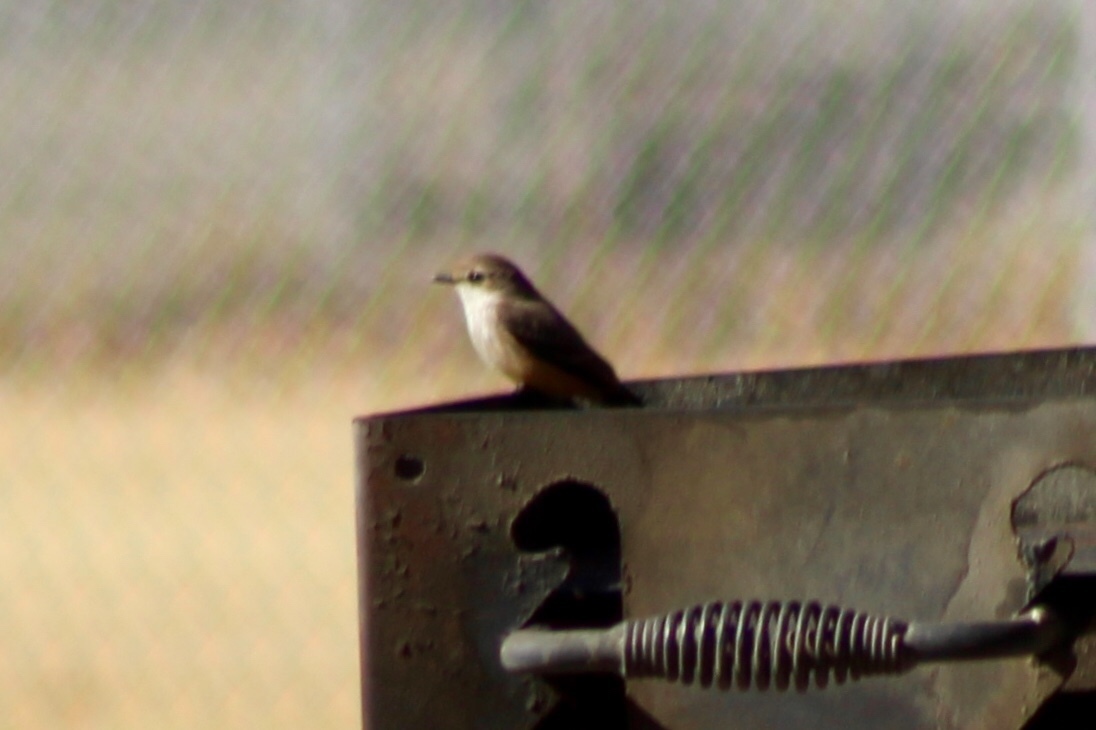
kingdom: Animalia
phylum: Chordata
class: Aves
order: Passeriformes
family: Tyrannidae
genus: Pyrocephalus
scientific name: Pyrocephalus rubinus
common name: Vermilion flycatcher
